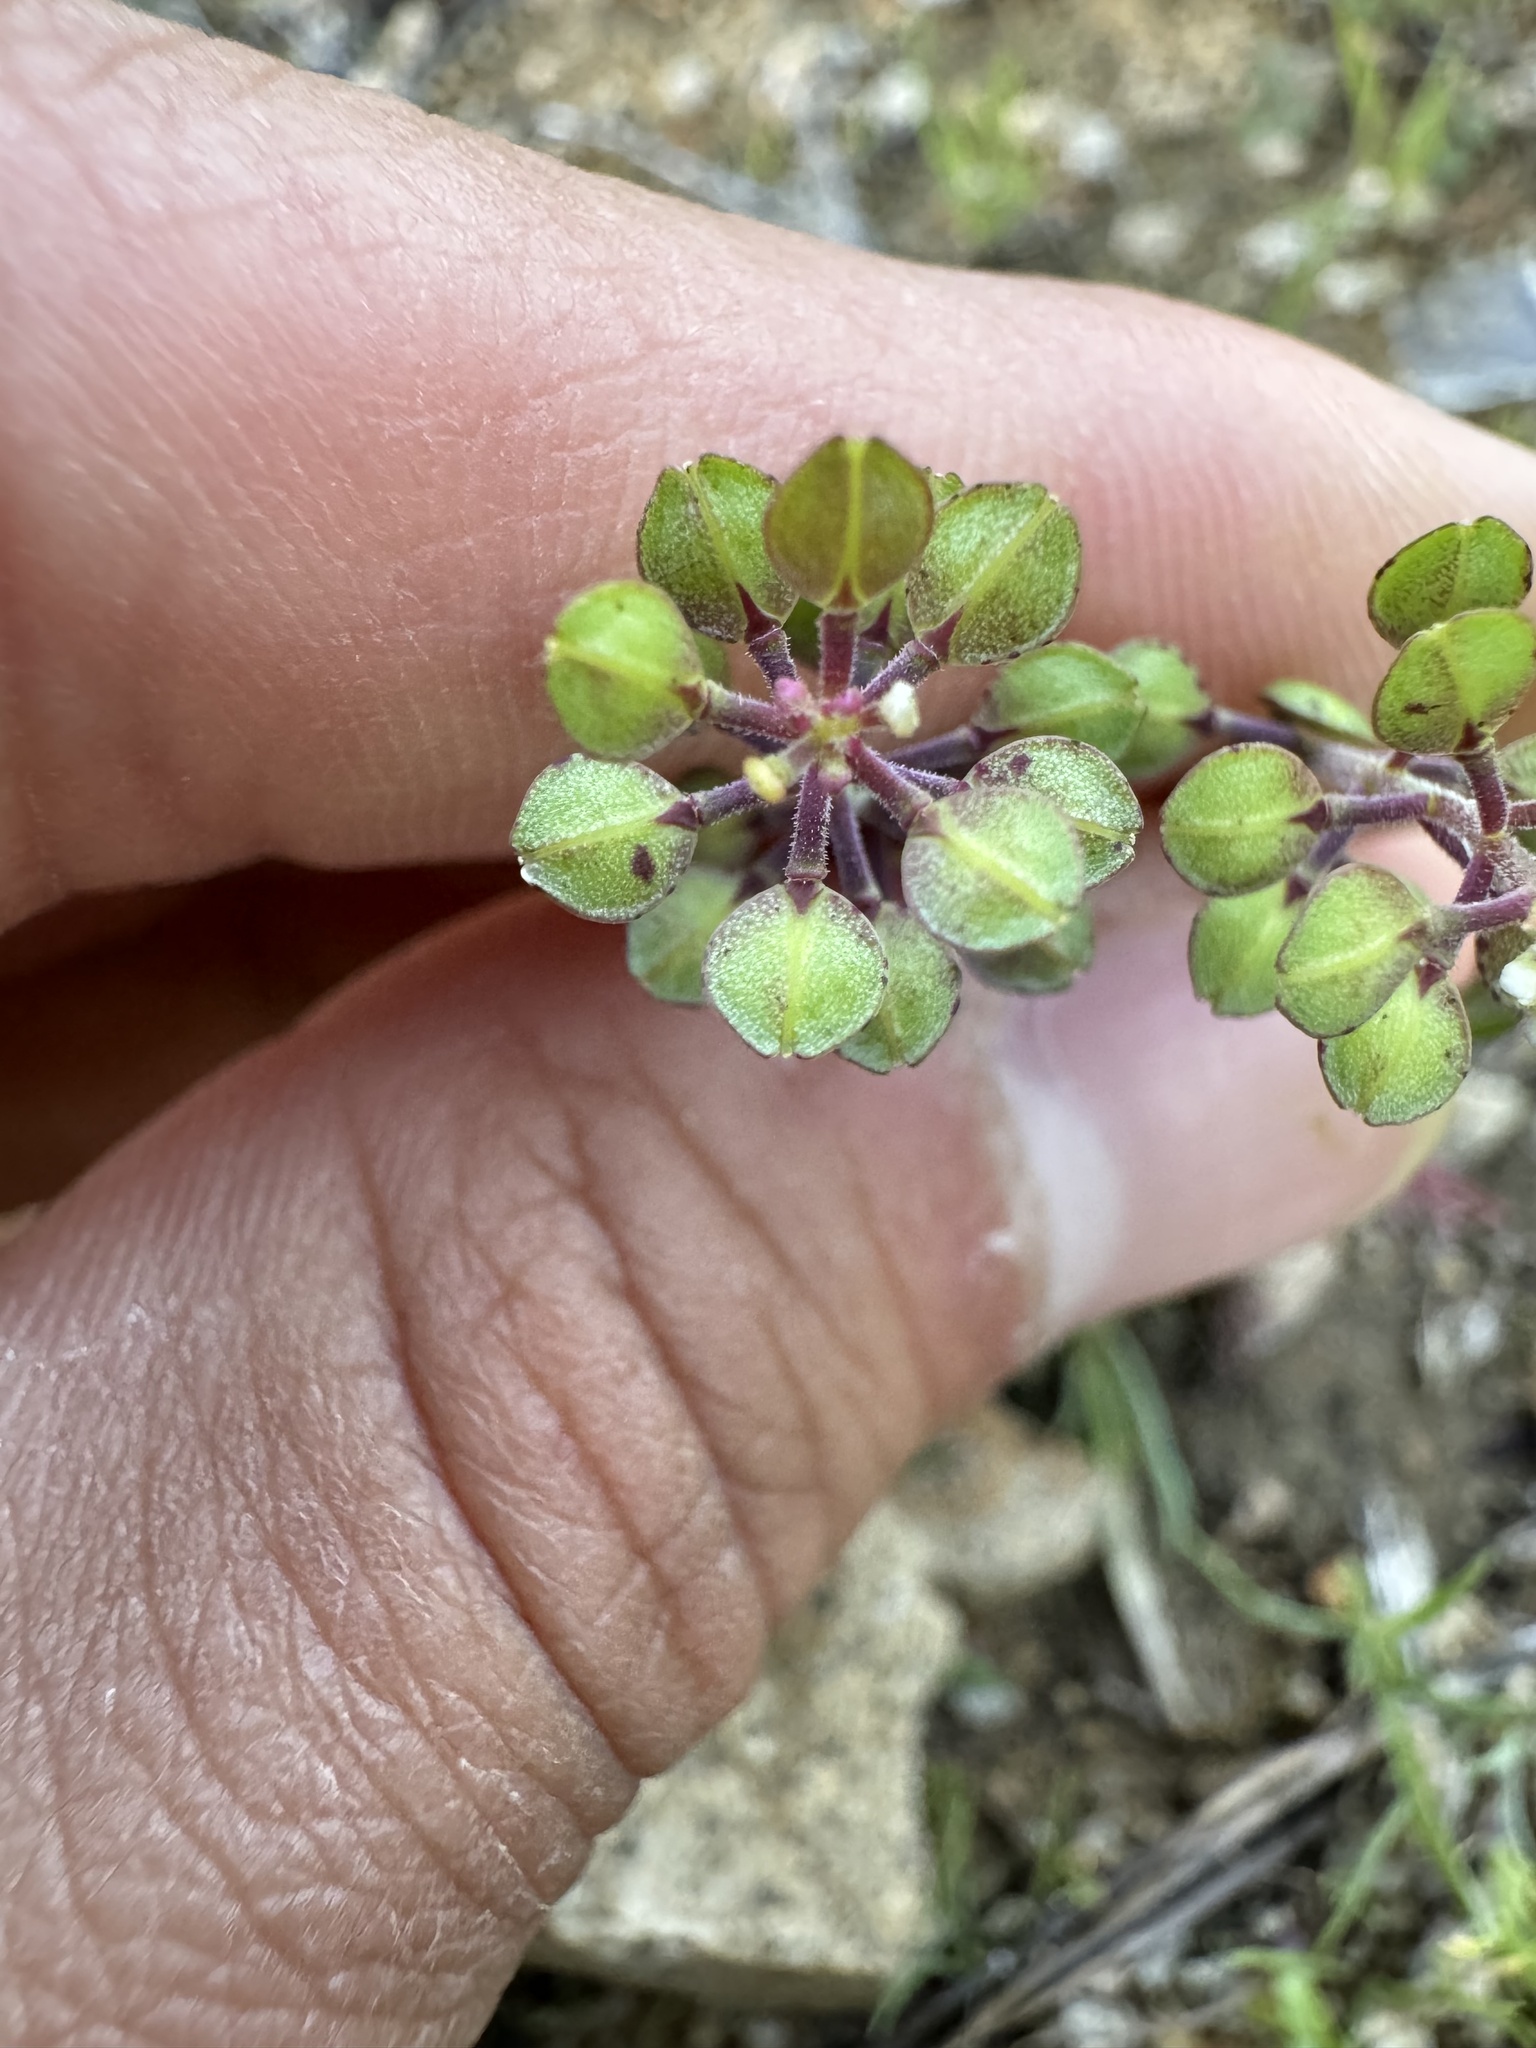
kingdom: Plantae
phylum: Tracheophyta
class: Magnoliopsida
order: Brassicales
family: Brassicaceae
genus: Lepidium
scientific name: Lepidium nitidum
